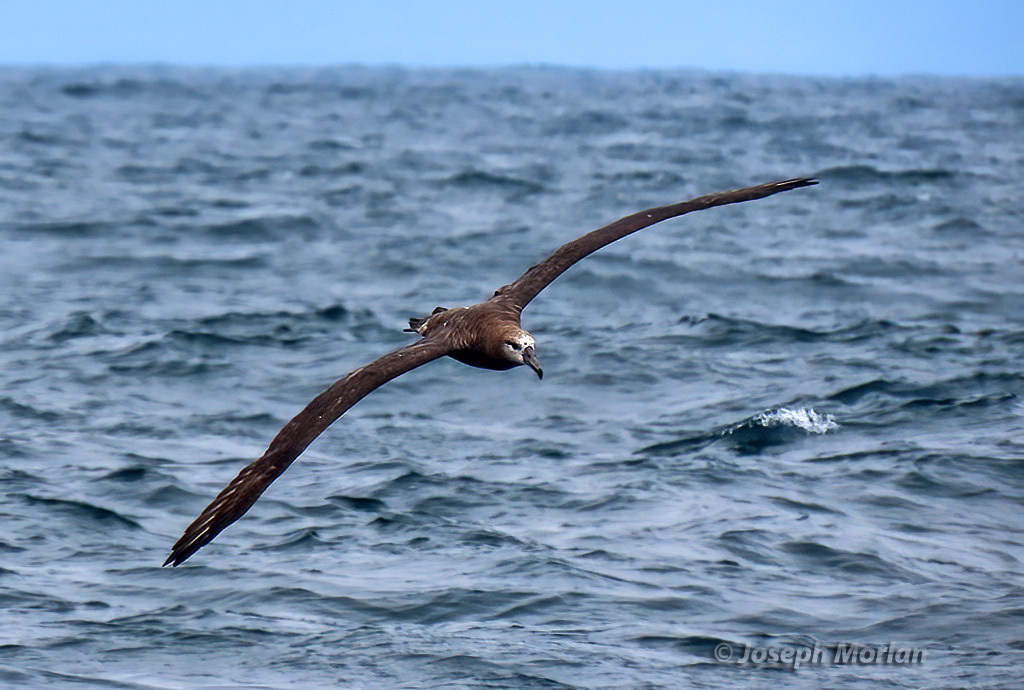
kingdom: Animalia
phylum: Chordata
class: Aves
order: Procellariiformes
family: Diomedeidae
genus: Phoebastria
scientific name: Phoebastria nigripes
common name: Black-footed albatross
